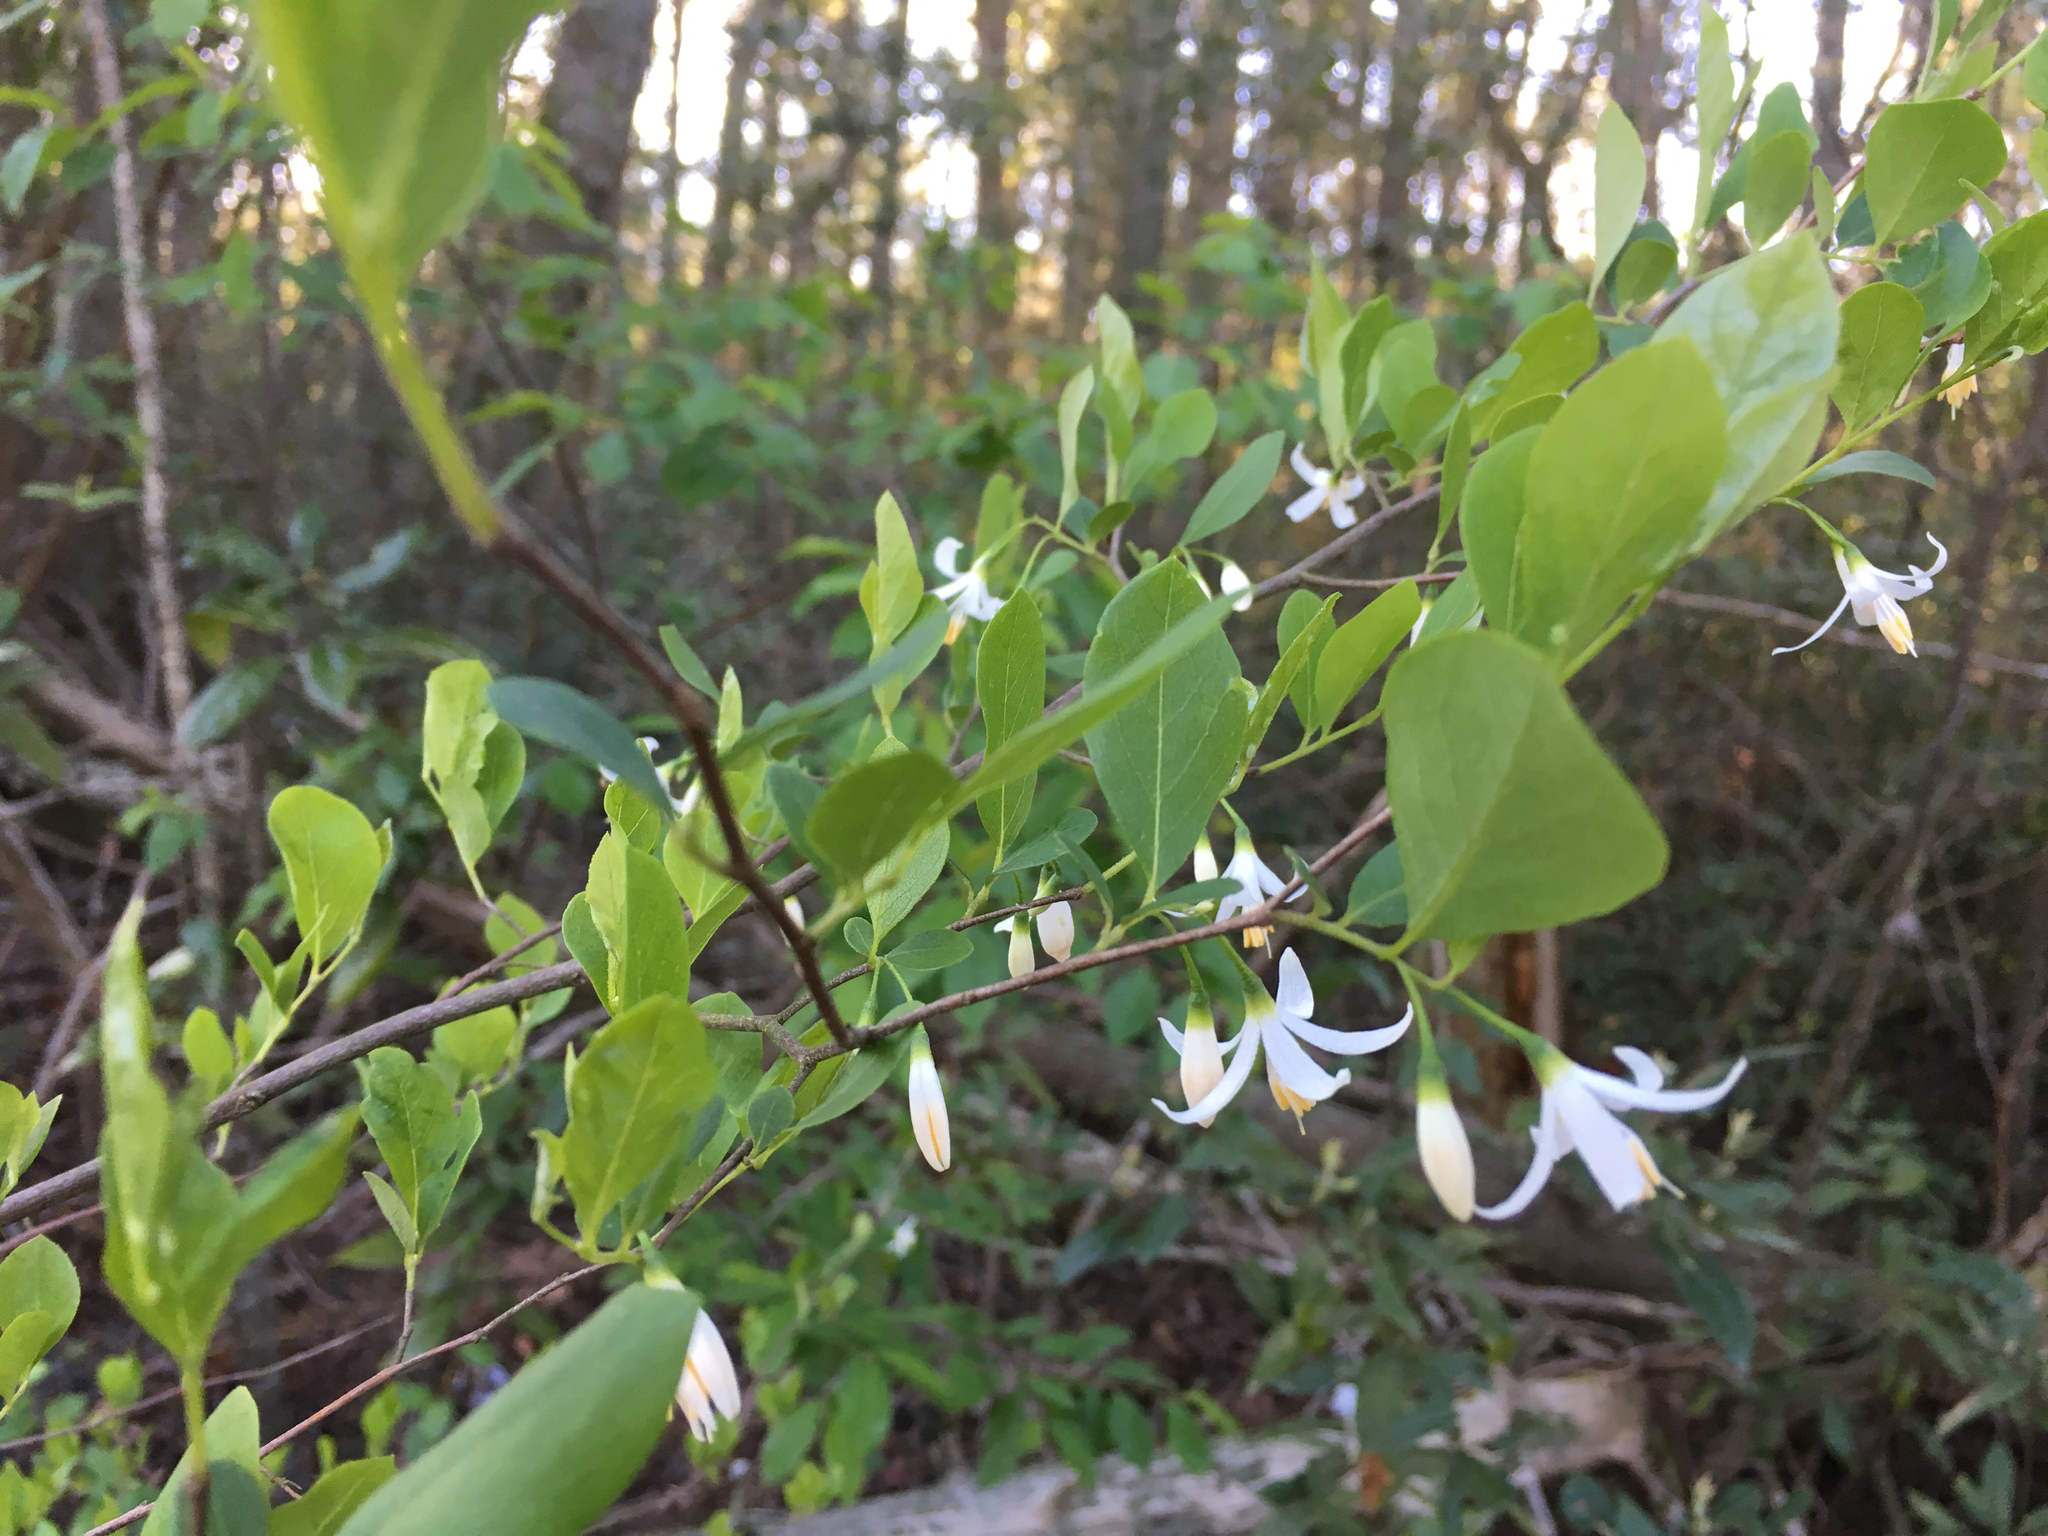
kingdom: Plantae
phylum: Tracheophyta
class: Magnoliopsida
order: Ericales
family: Styracaceae
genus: Styrax
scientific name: Styrax americanus
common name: American snowbell
